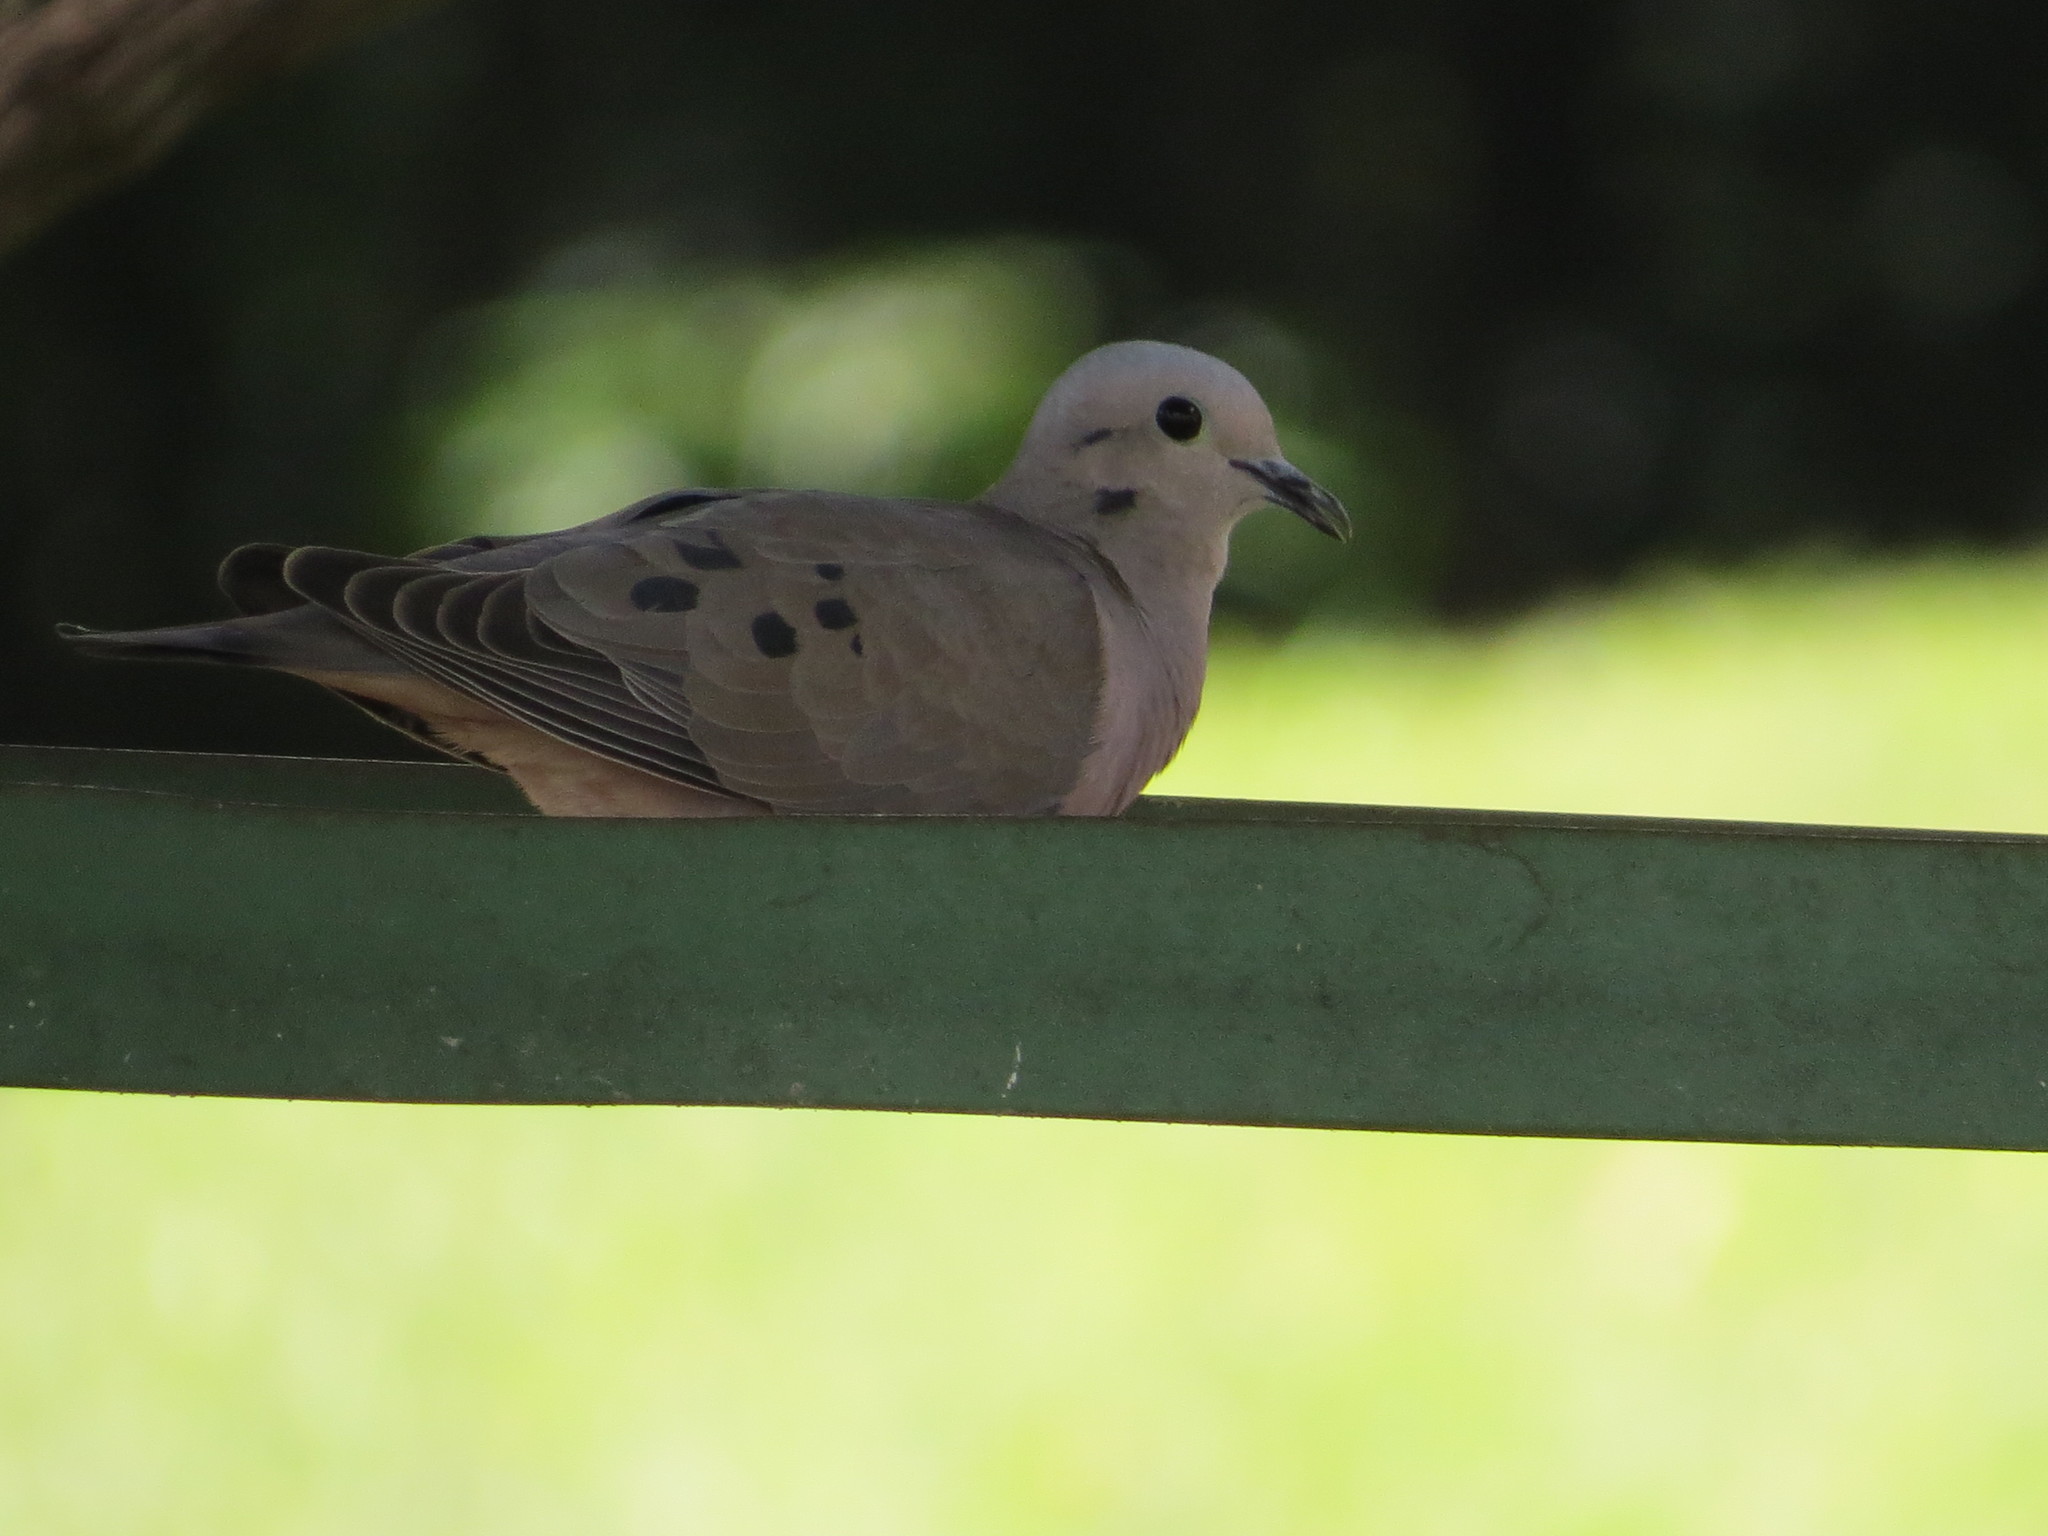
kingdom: Animalia
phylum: Chordata
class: Aves
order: Columbiformes
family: Columbidae
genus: Zenaida
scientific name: Zenaida auriculata
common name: Eared dove
